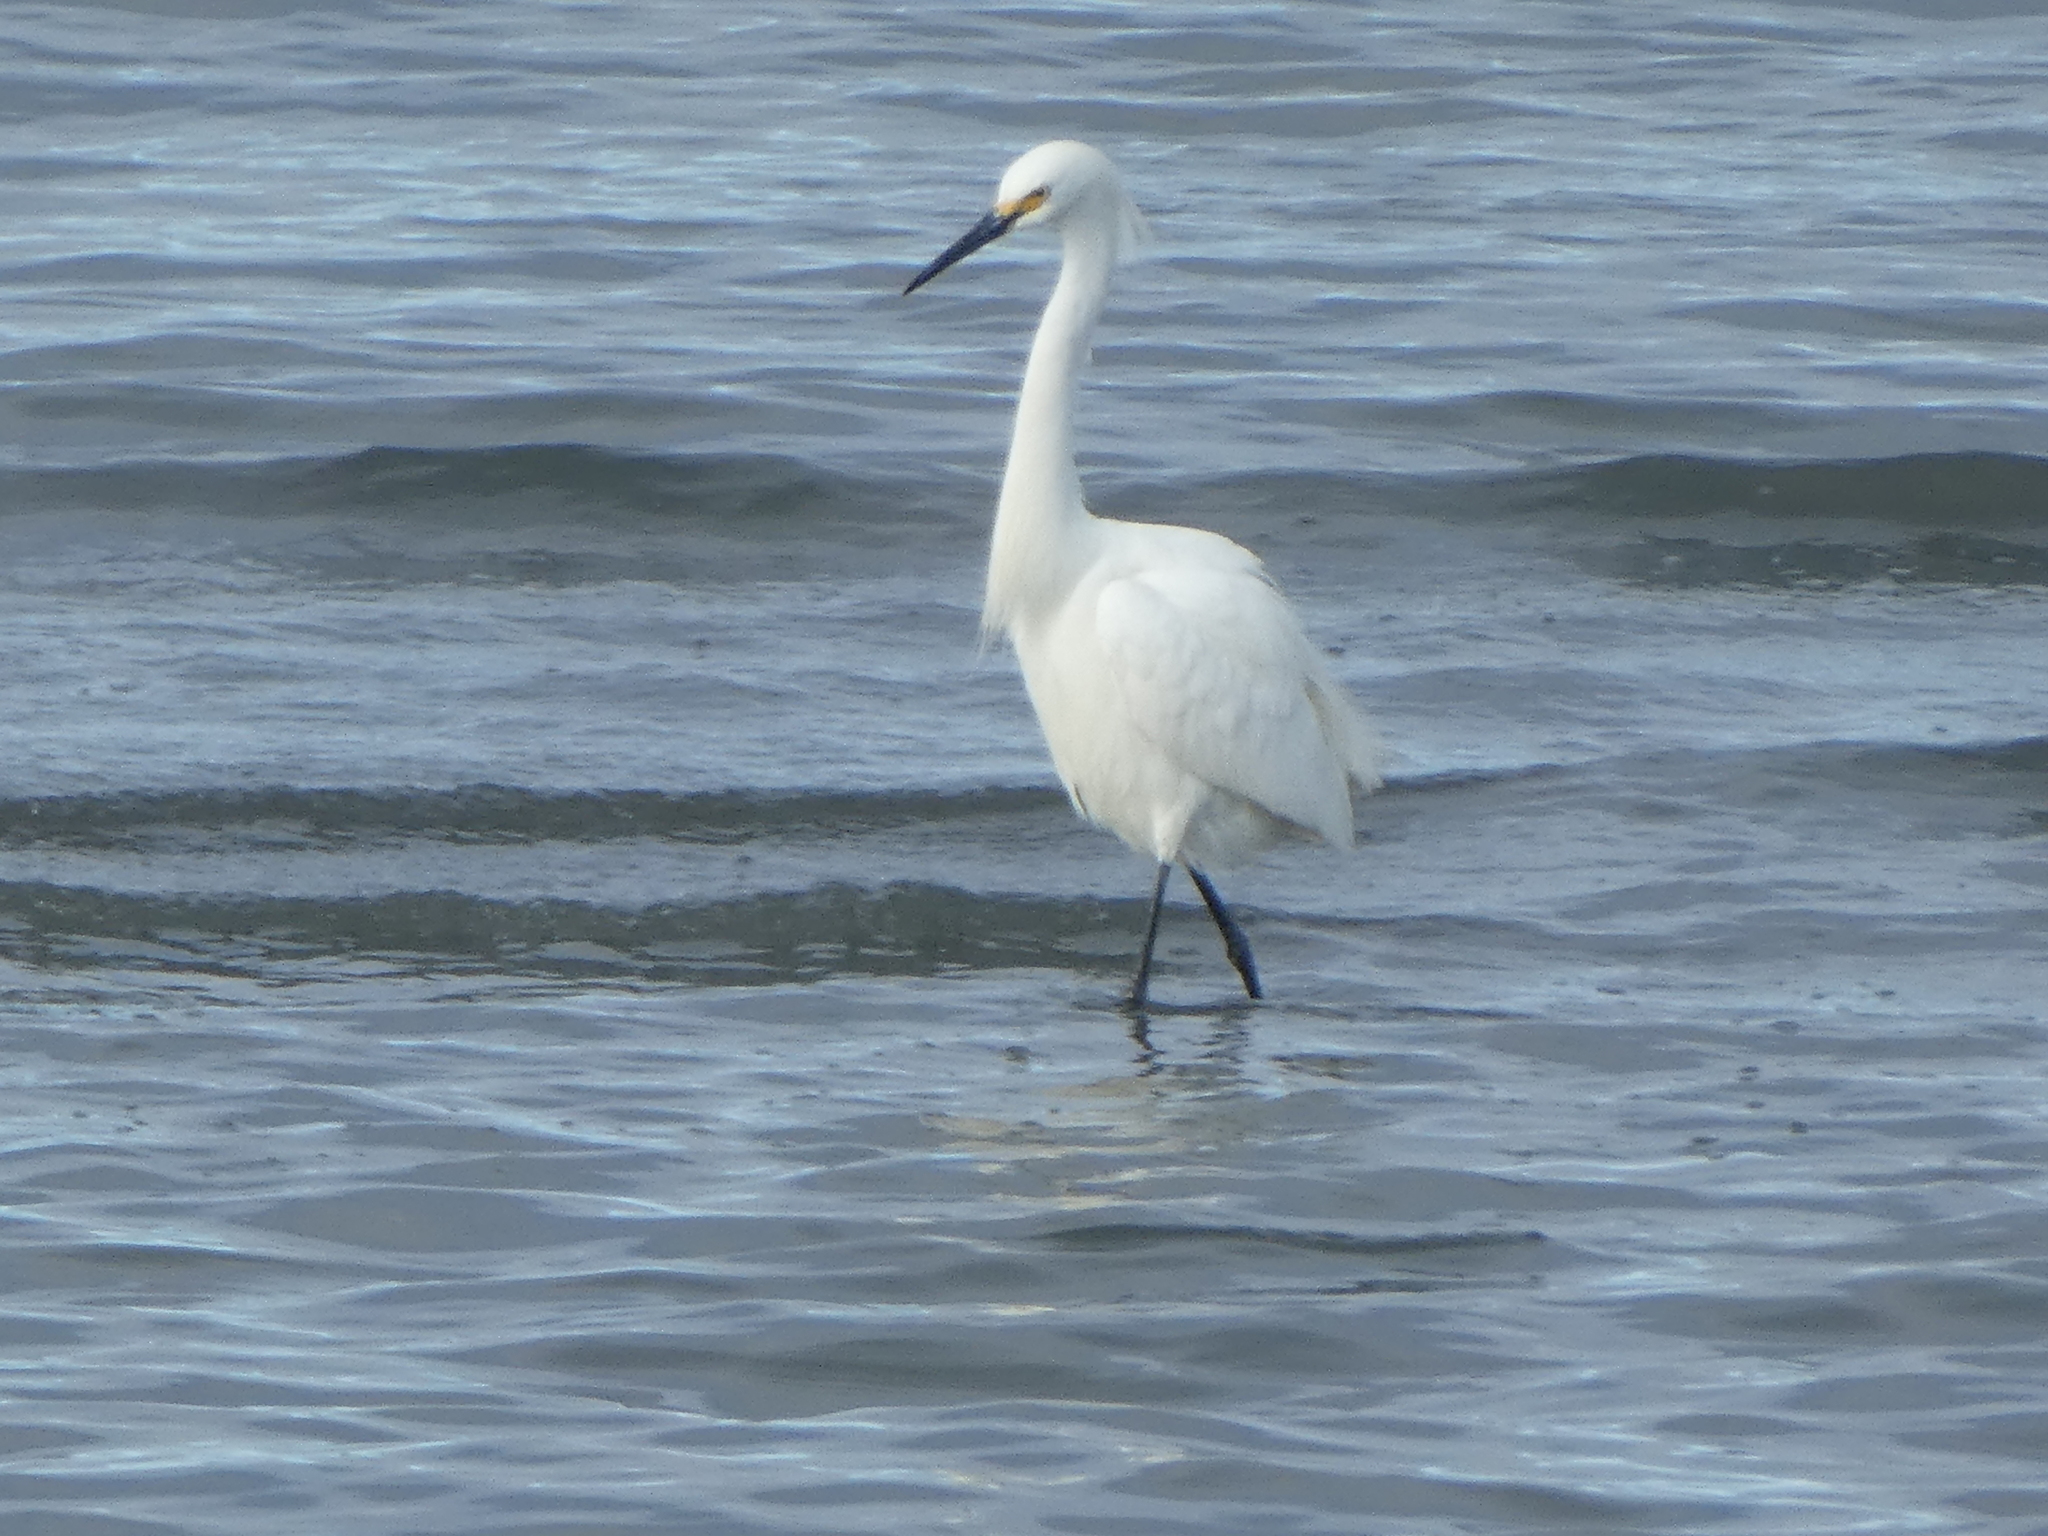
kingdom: Animalia
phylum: Chordata
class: Aves
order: Pelecaniformes
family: Ardeidae
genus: Egretta
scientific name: Egretta thula
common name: Snowy egret
